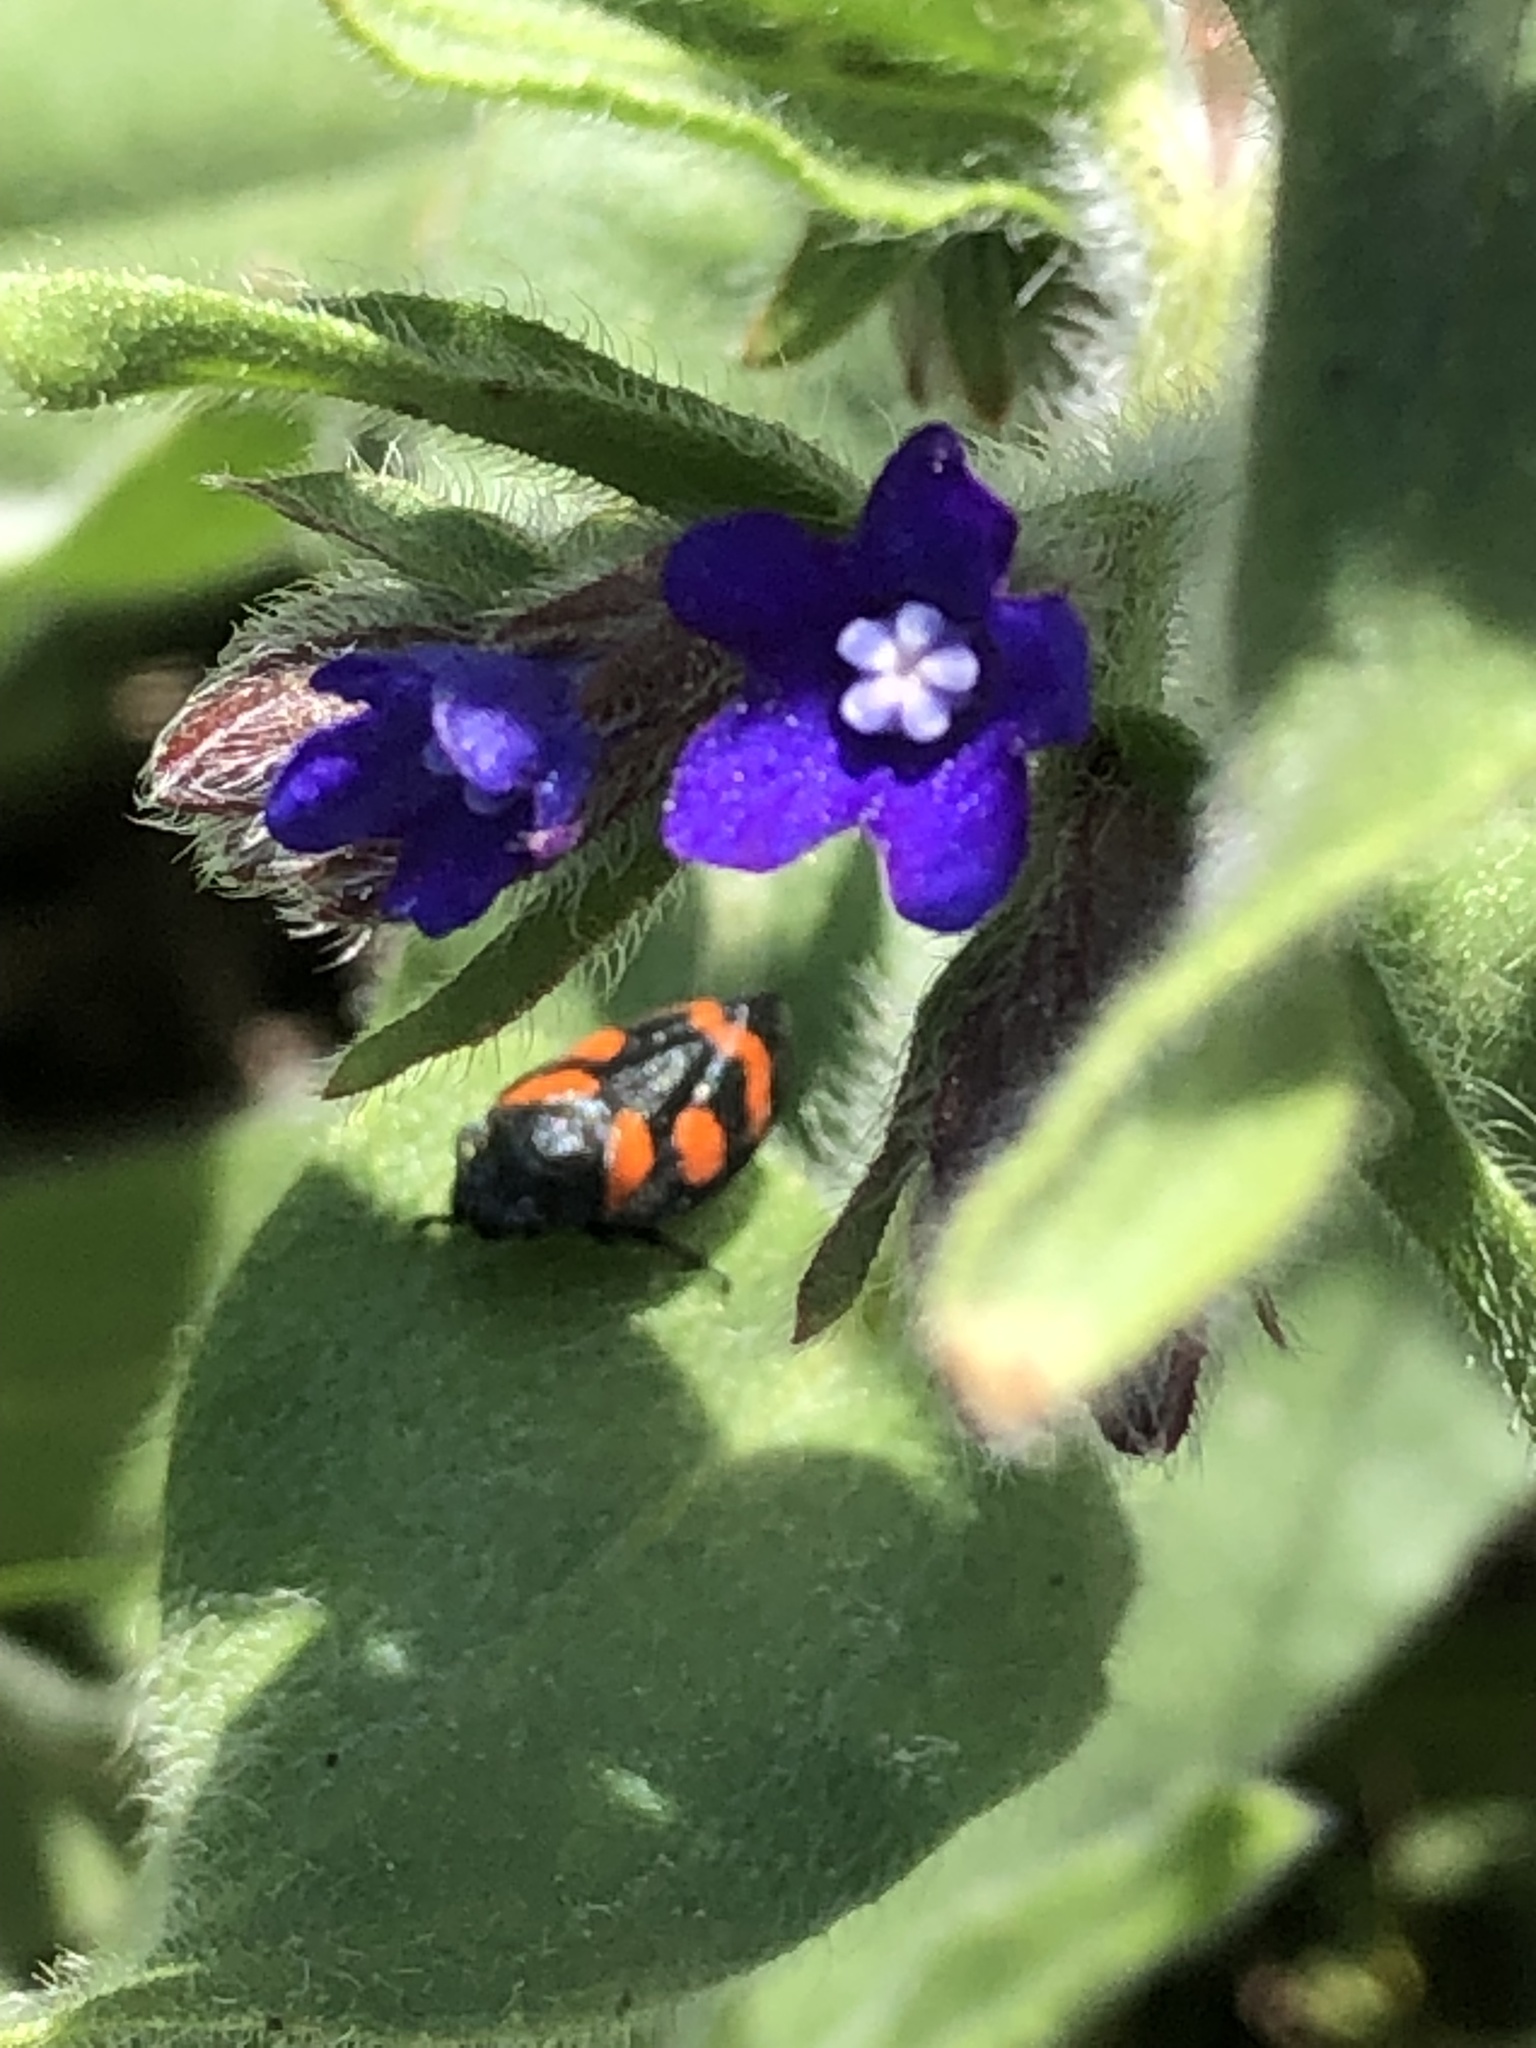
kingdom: Animalia
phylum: Arthropoda
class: Insecta
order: Hemiptera
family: Cercopidae
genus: Cercopis
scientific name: Cercopis
